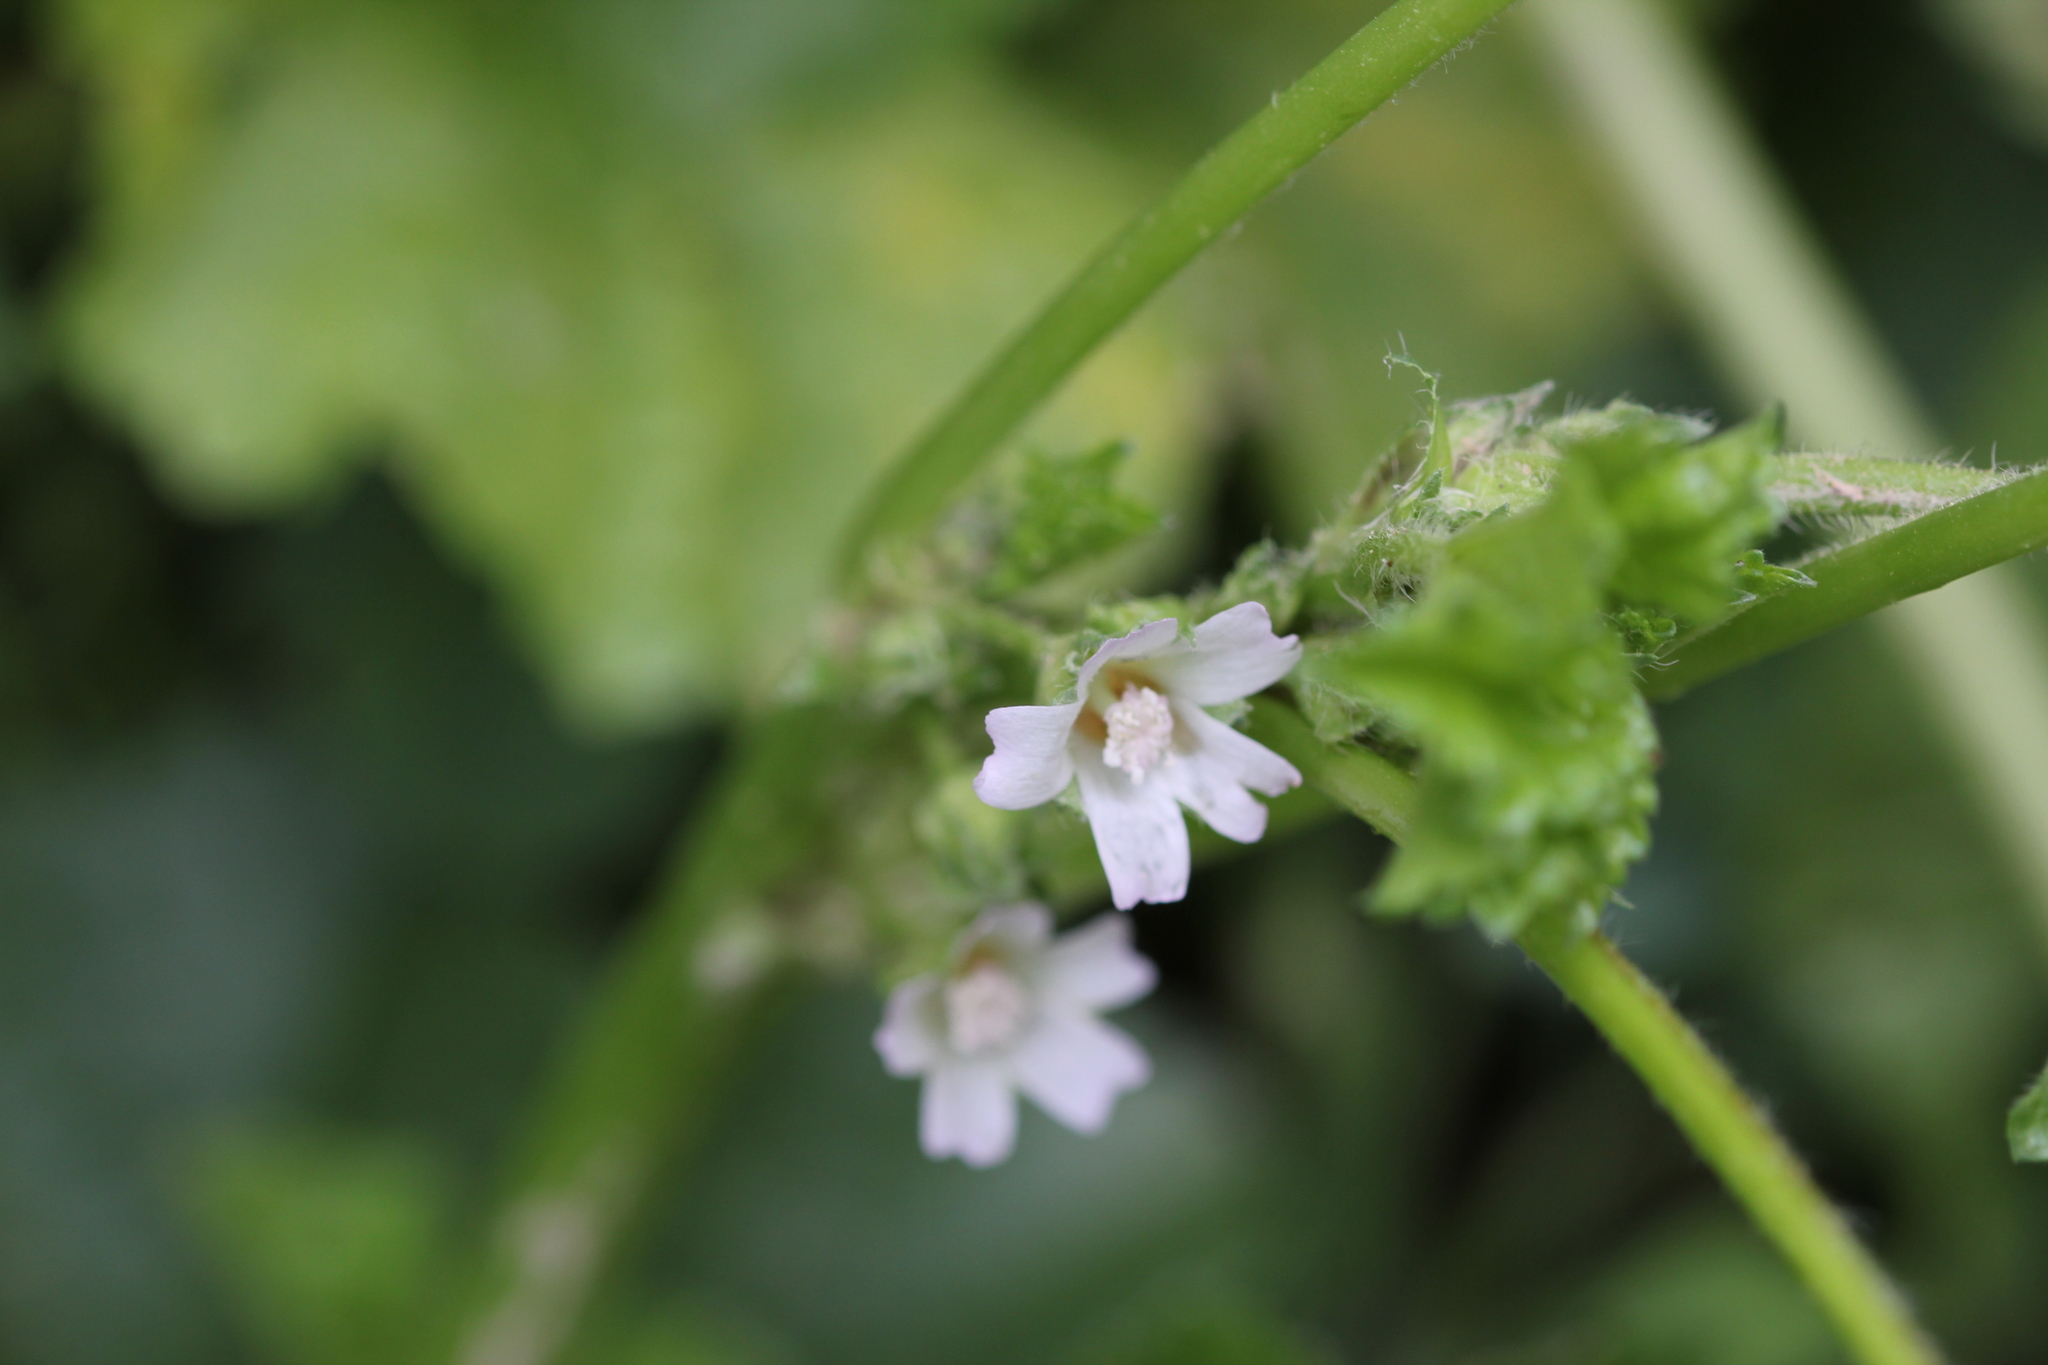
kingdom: Plantae
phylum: Tracheophyta
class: Magnoliopsida
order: Malvales
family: Malvaceae
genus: Malva
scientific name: Malva neglecta
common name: Common mallow
